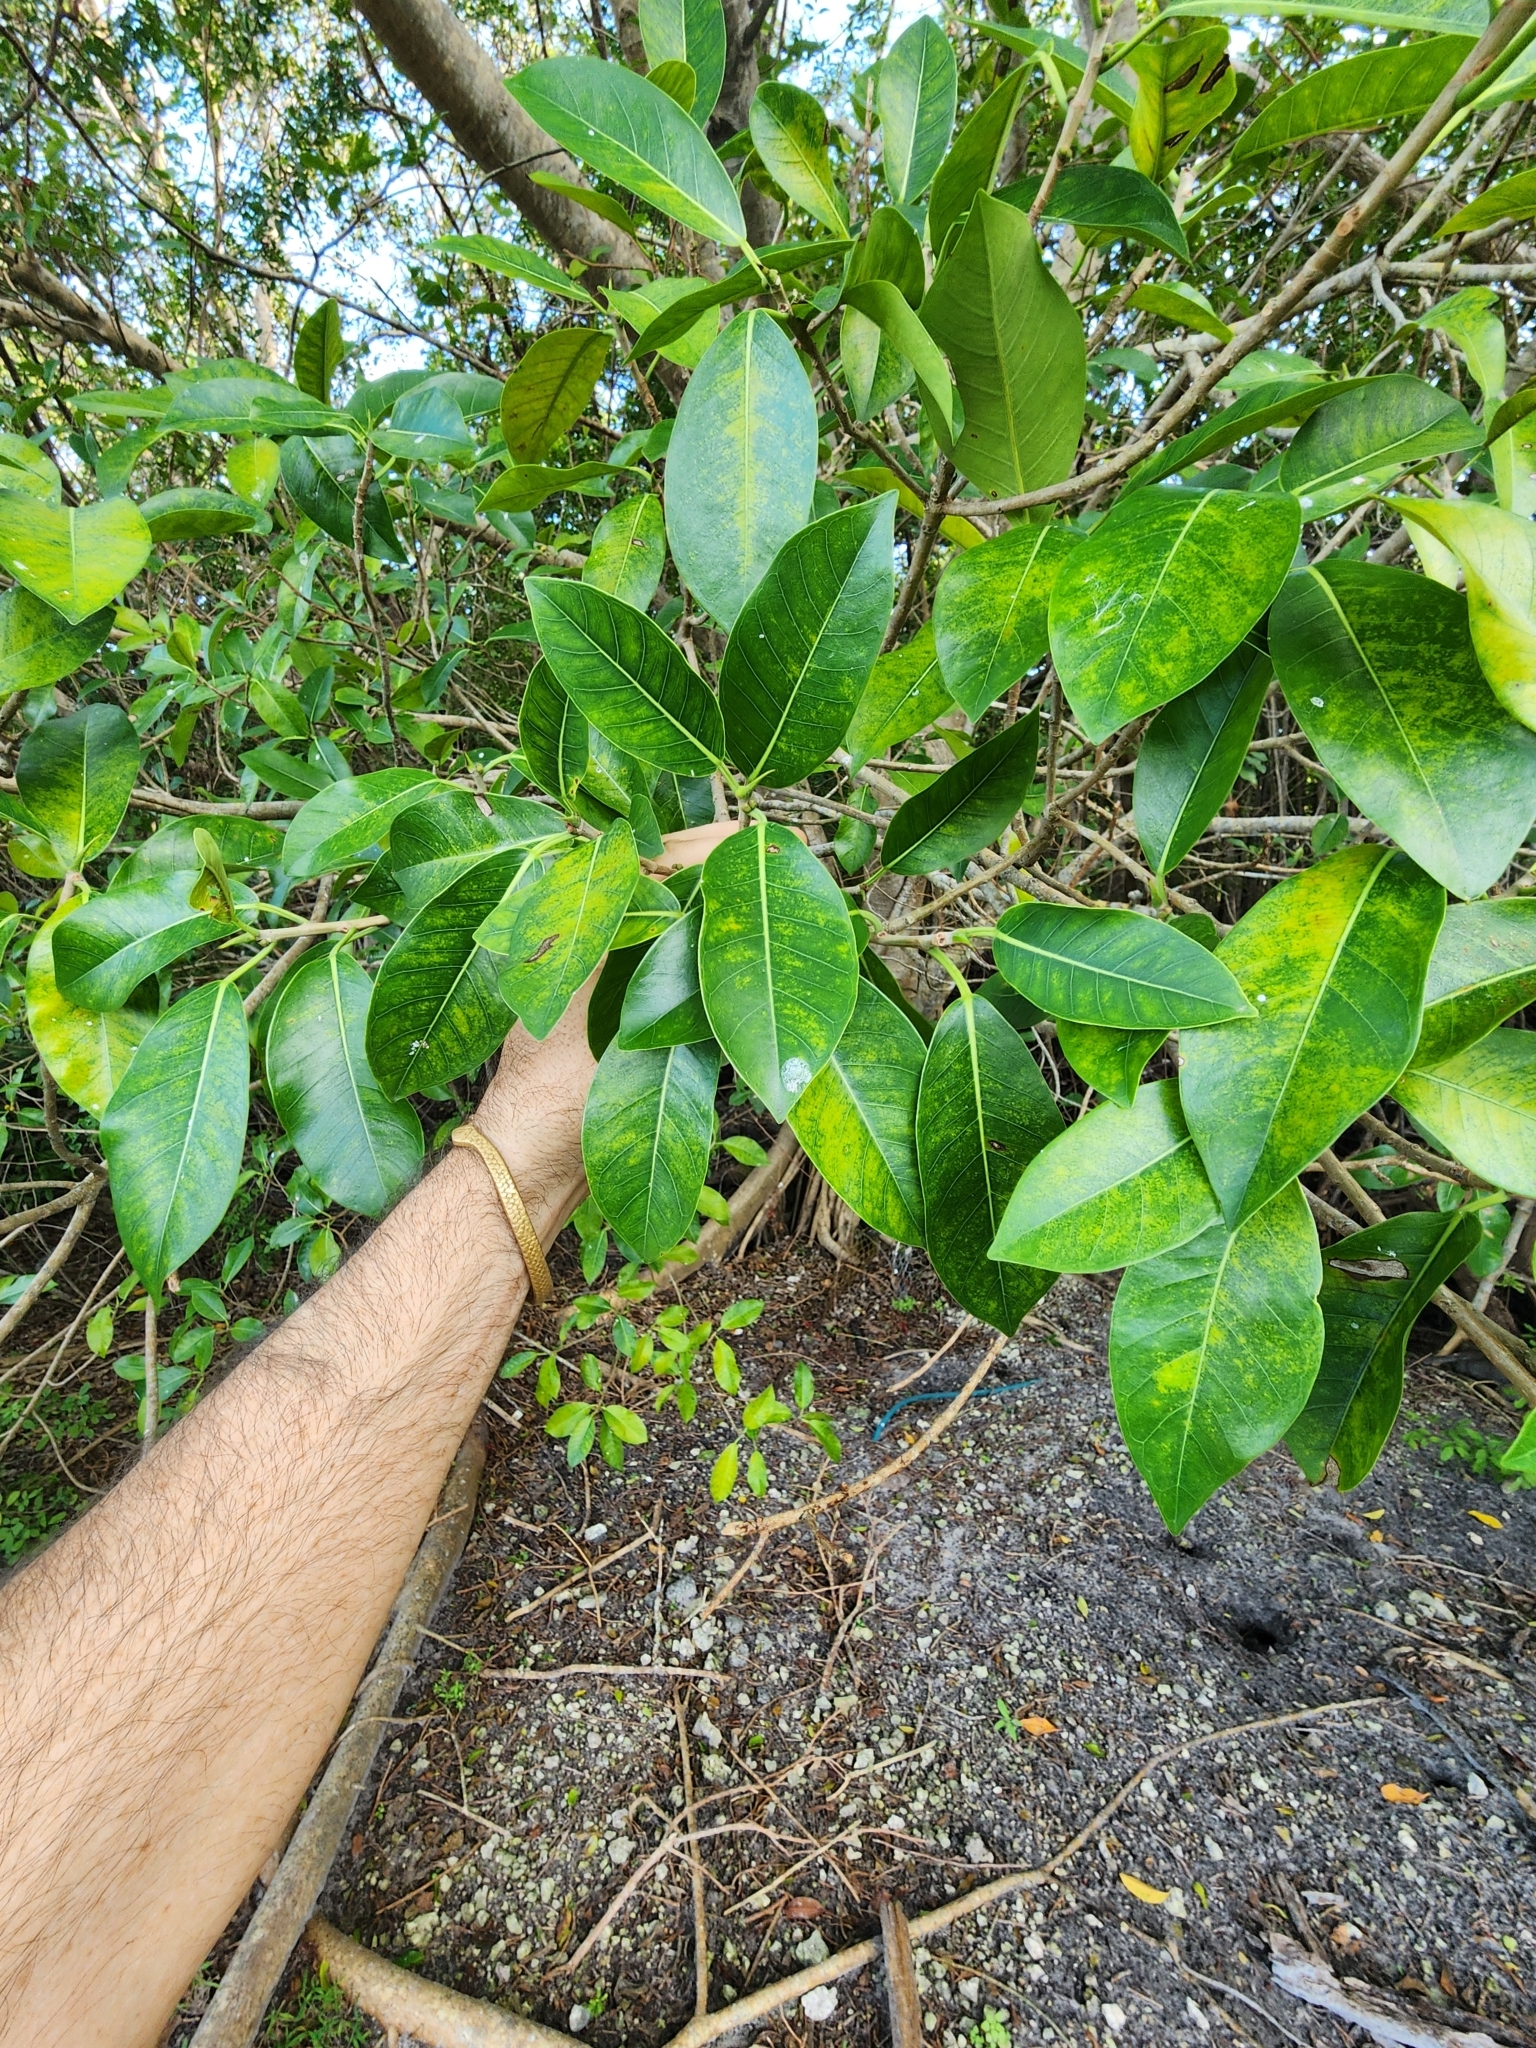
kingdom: Plantae
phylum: Tracheophyta
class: Magnoliopsida
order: Rosales
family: Moraceae
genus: Ficus
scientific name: Ficus aurea
